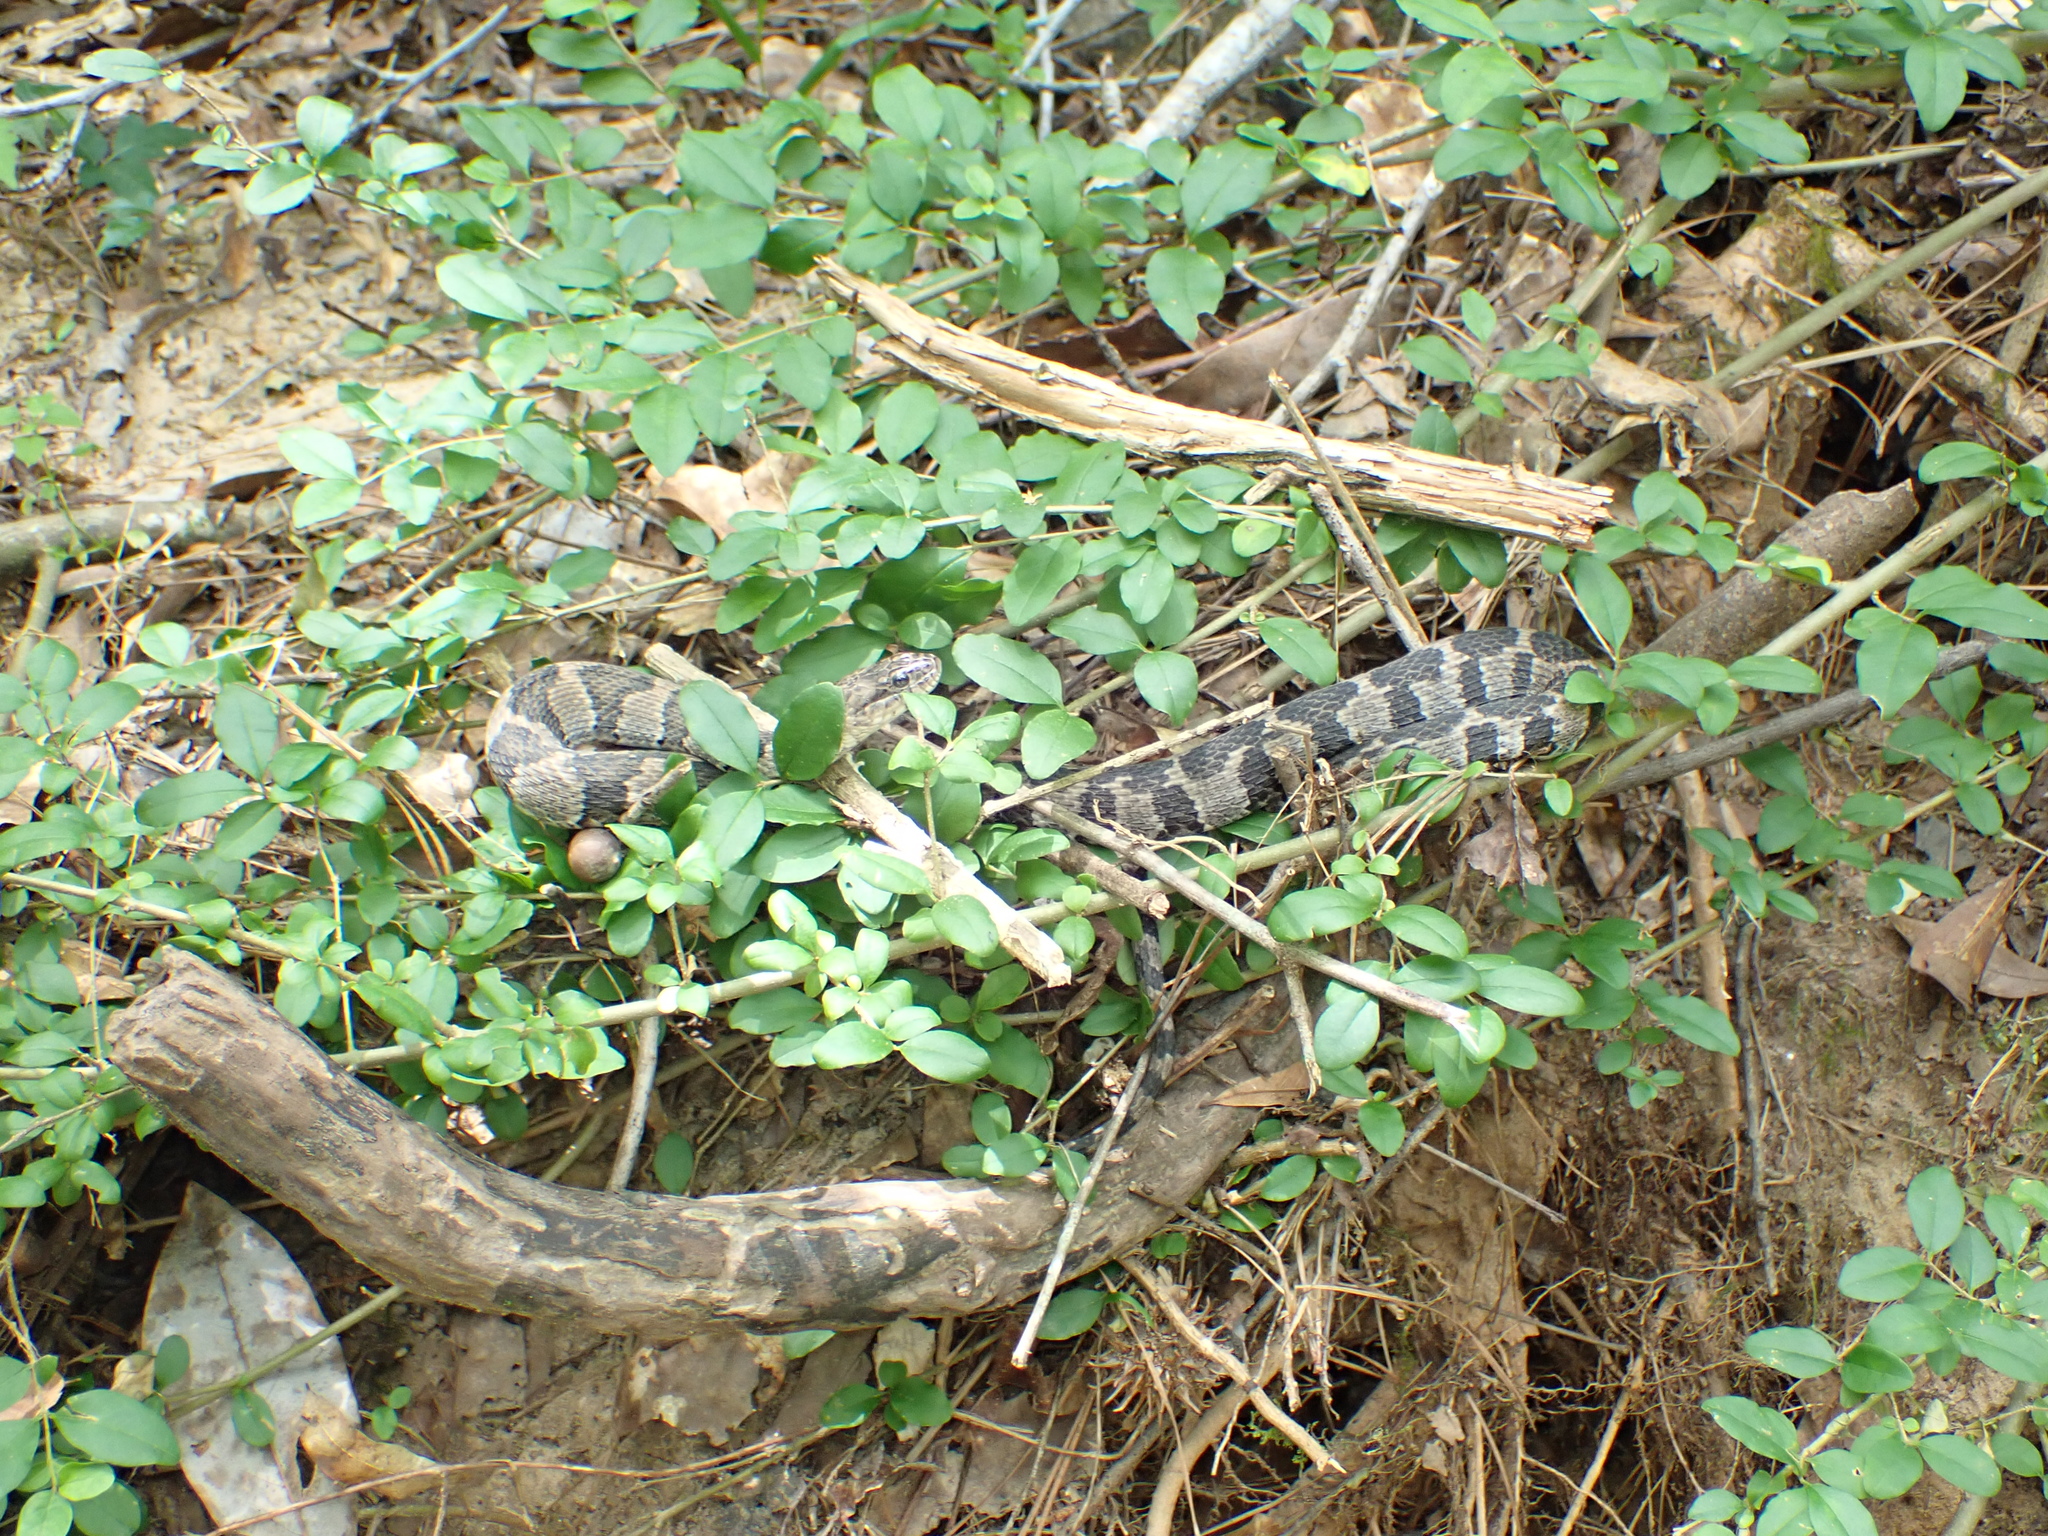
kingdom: Animalia
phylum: Chordata
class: Squamata
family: Colubridae
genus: Nerodia
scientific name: Nerodia sipedon
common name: Northern water snake
